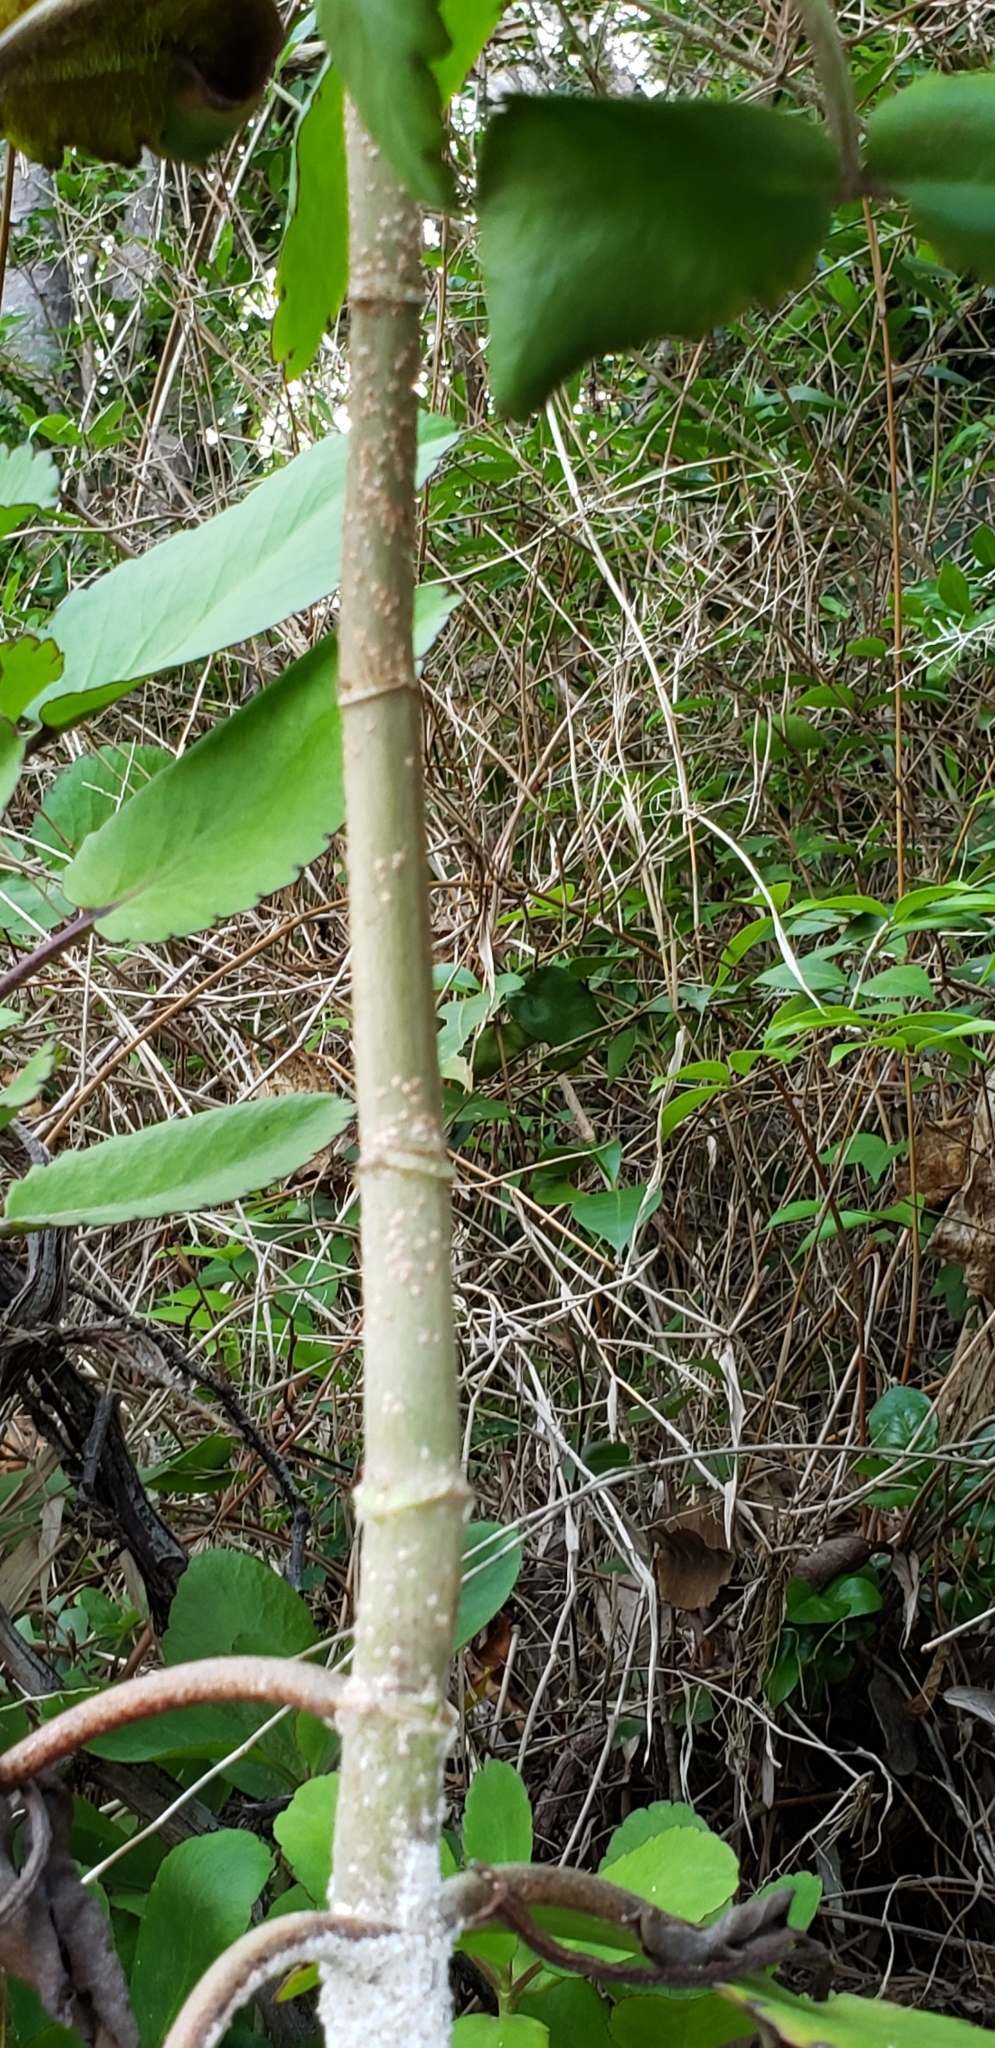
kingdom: Plantae
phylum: Tracheophyta
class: Magnoliopsida
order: Saxifragales
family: Crassulaceae
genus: Kalanchoe
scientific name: Kalanchoe pinnata
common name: Cathedral bells
